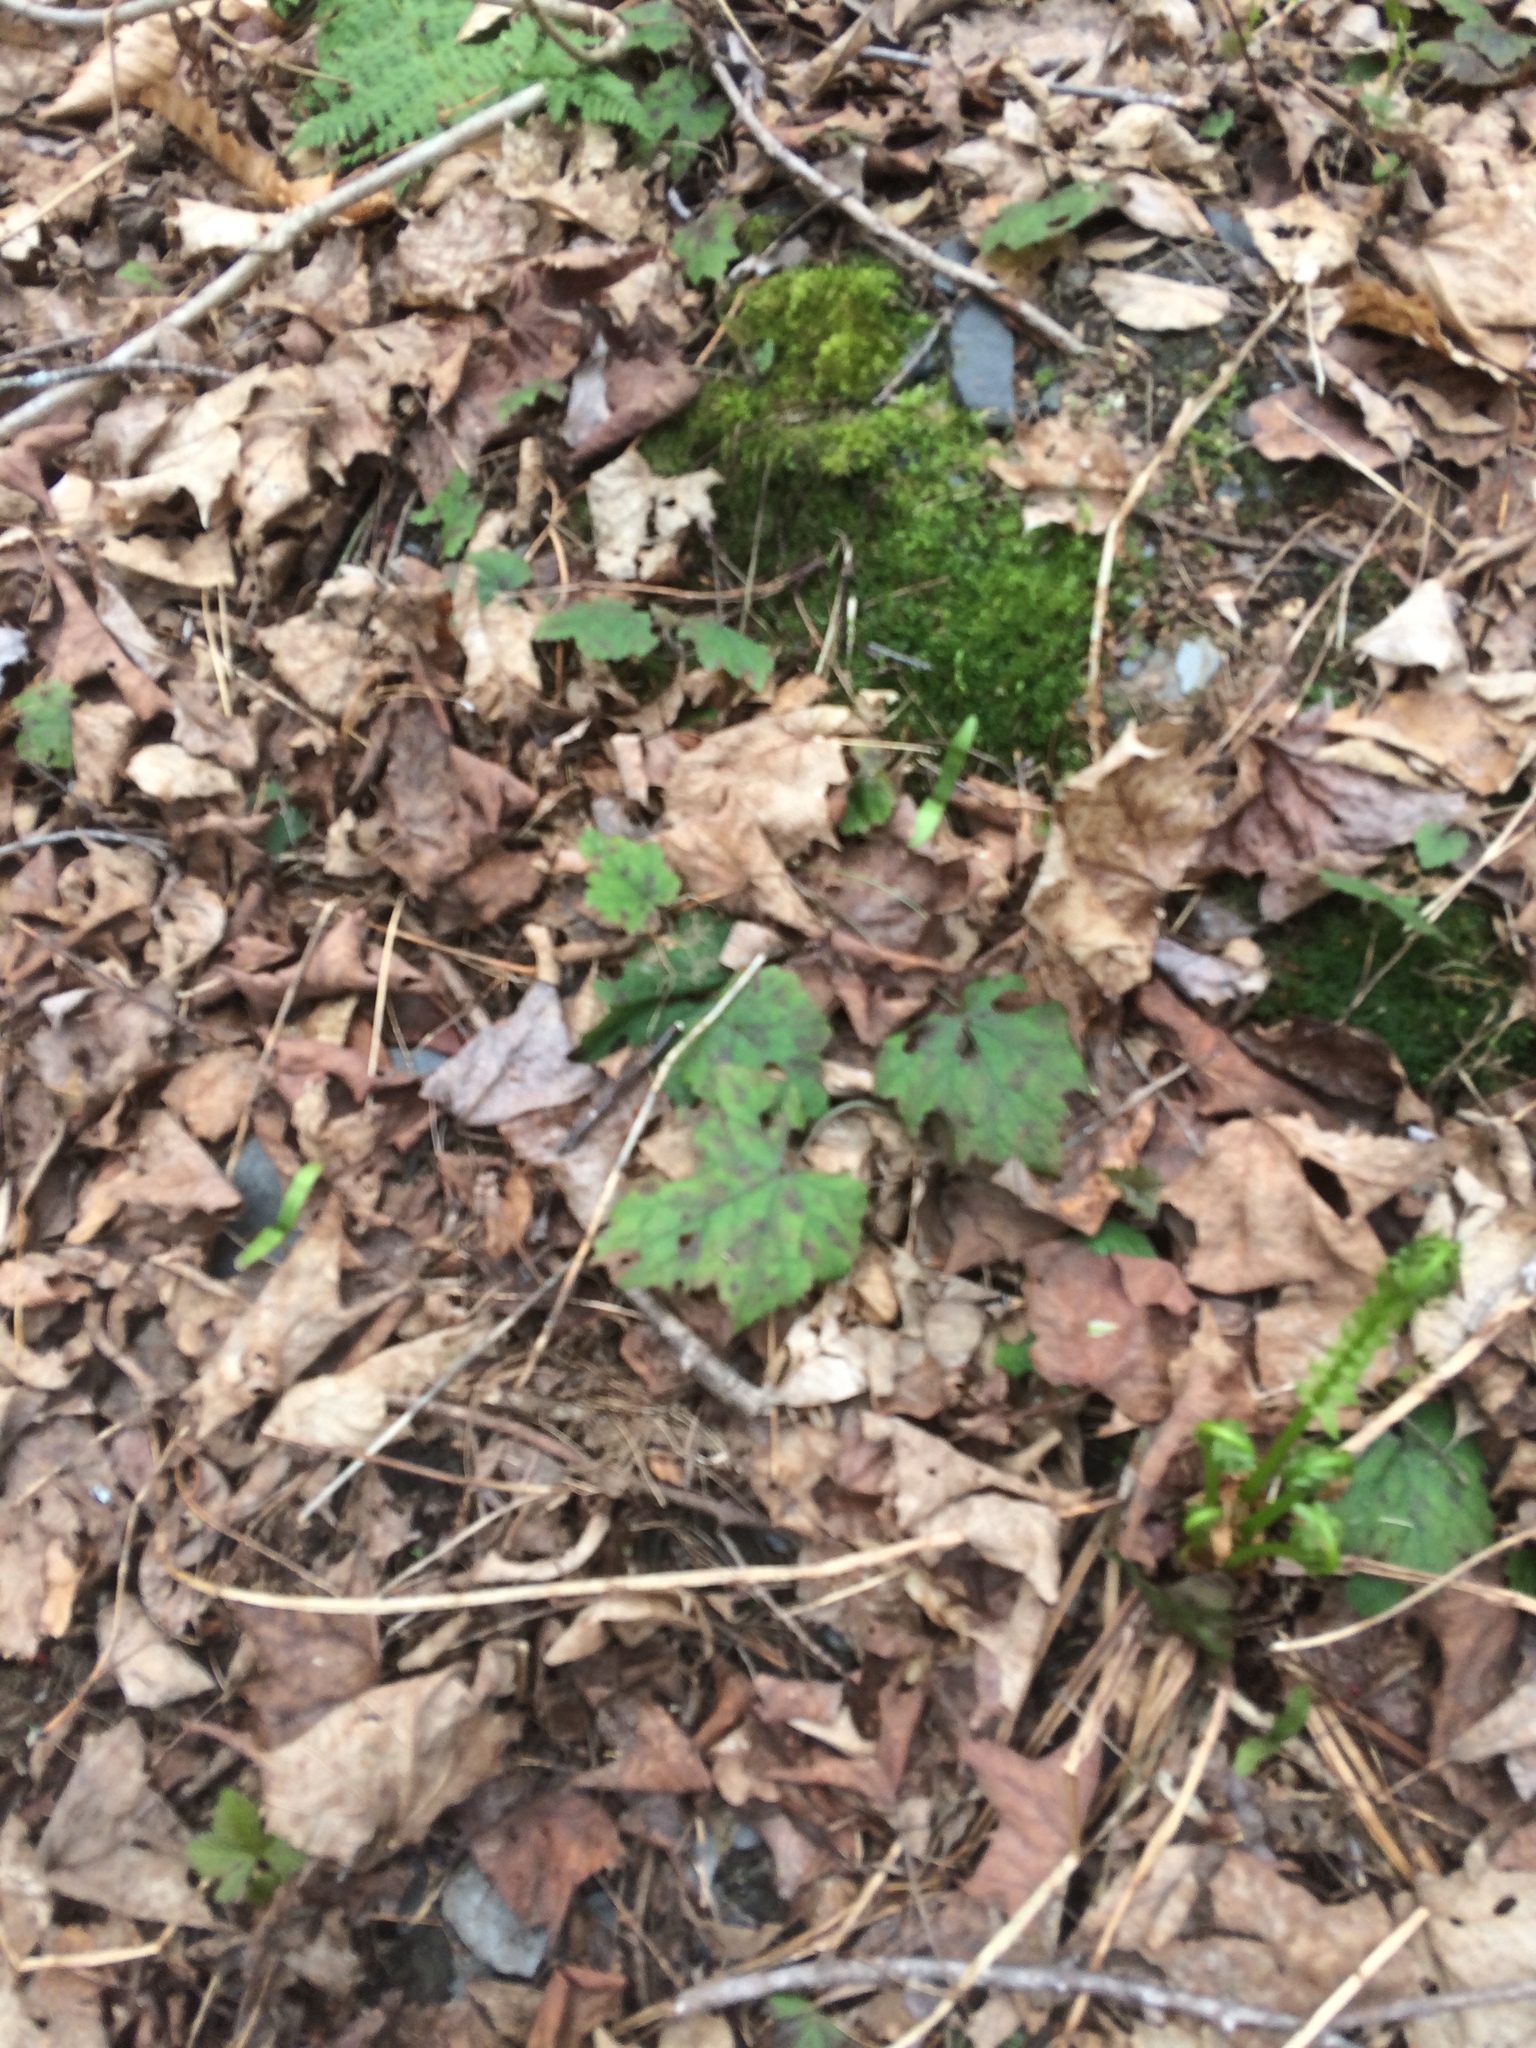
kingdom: Plantae
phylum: Tracheophyta
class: Magnoliopsida
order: Saxifragales
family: Saxifragaceae
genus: Tiarella
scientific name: Tiarella stolonifera
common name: Stoloniferous foamflower
